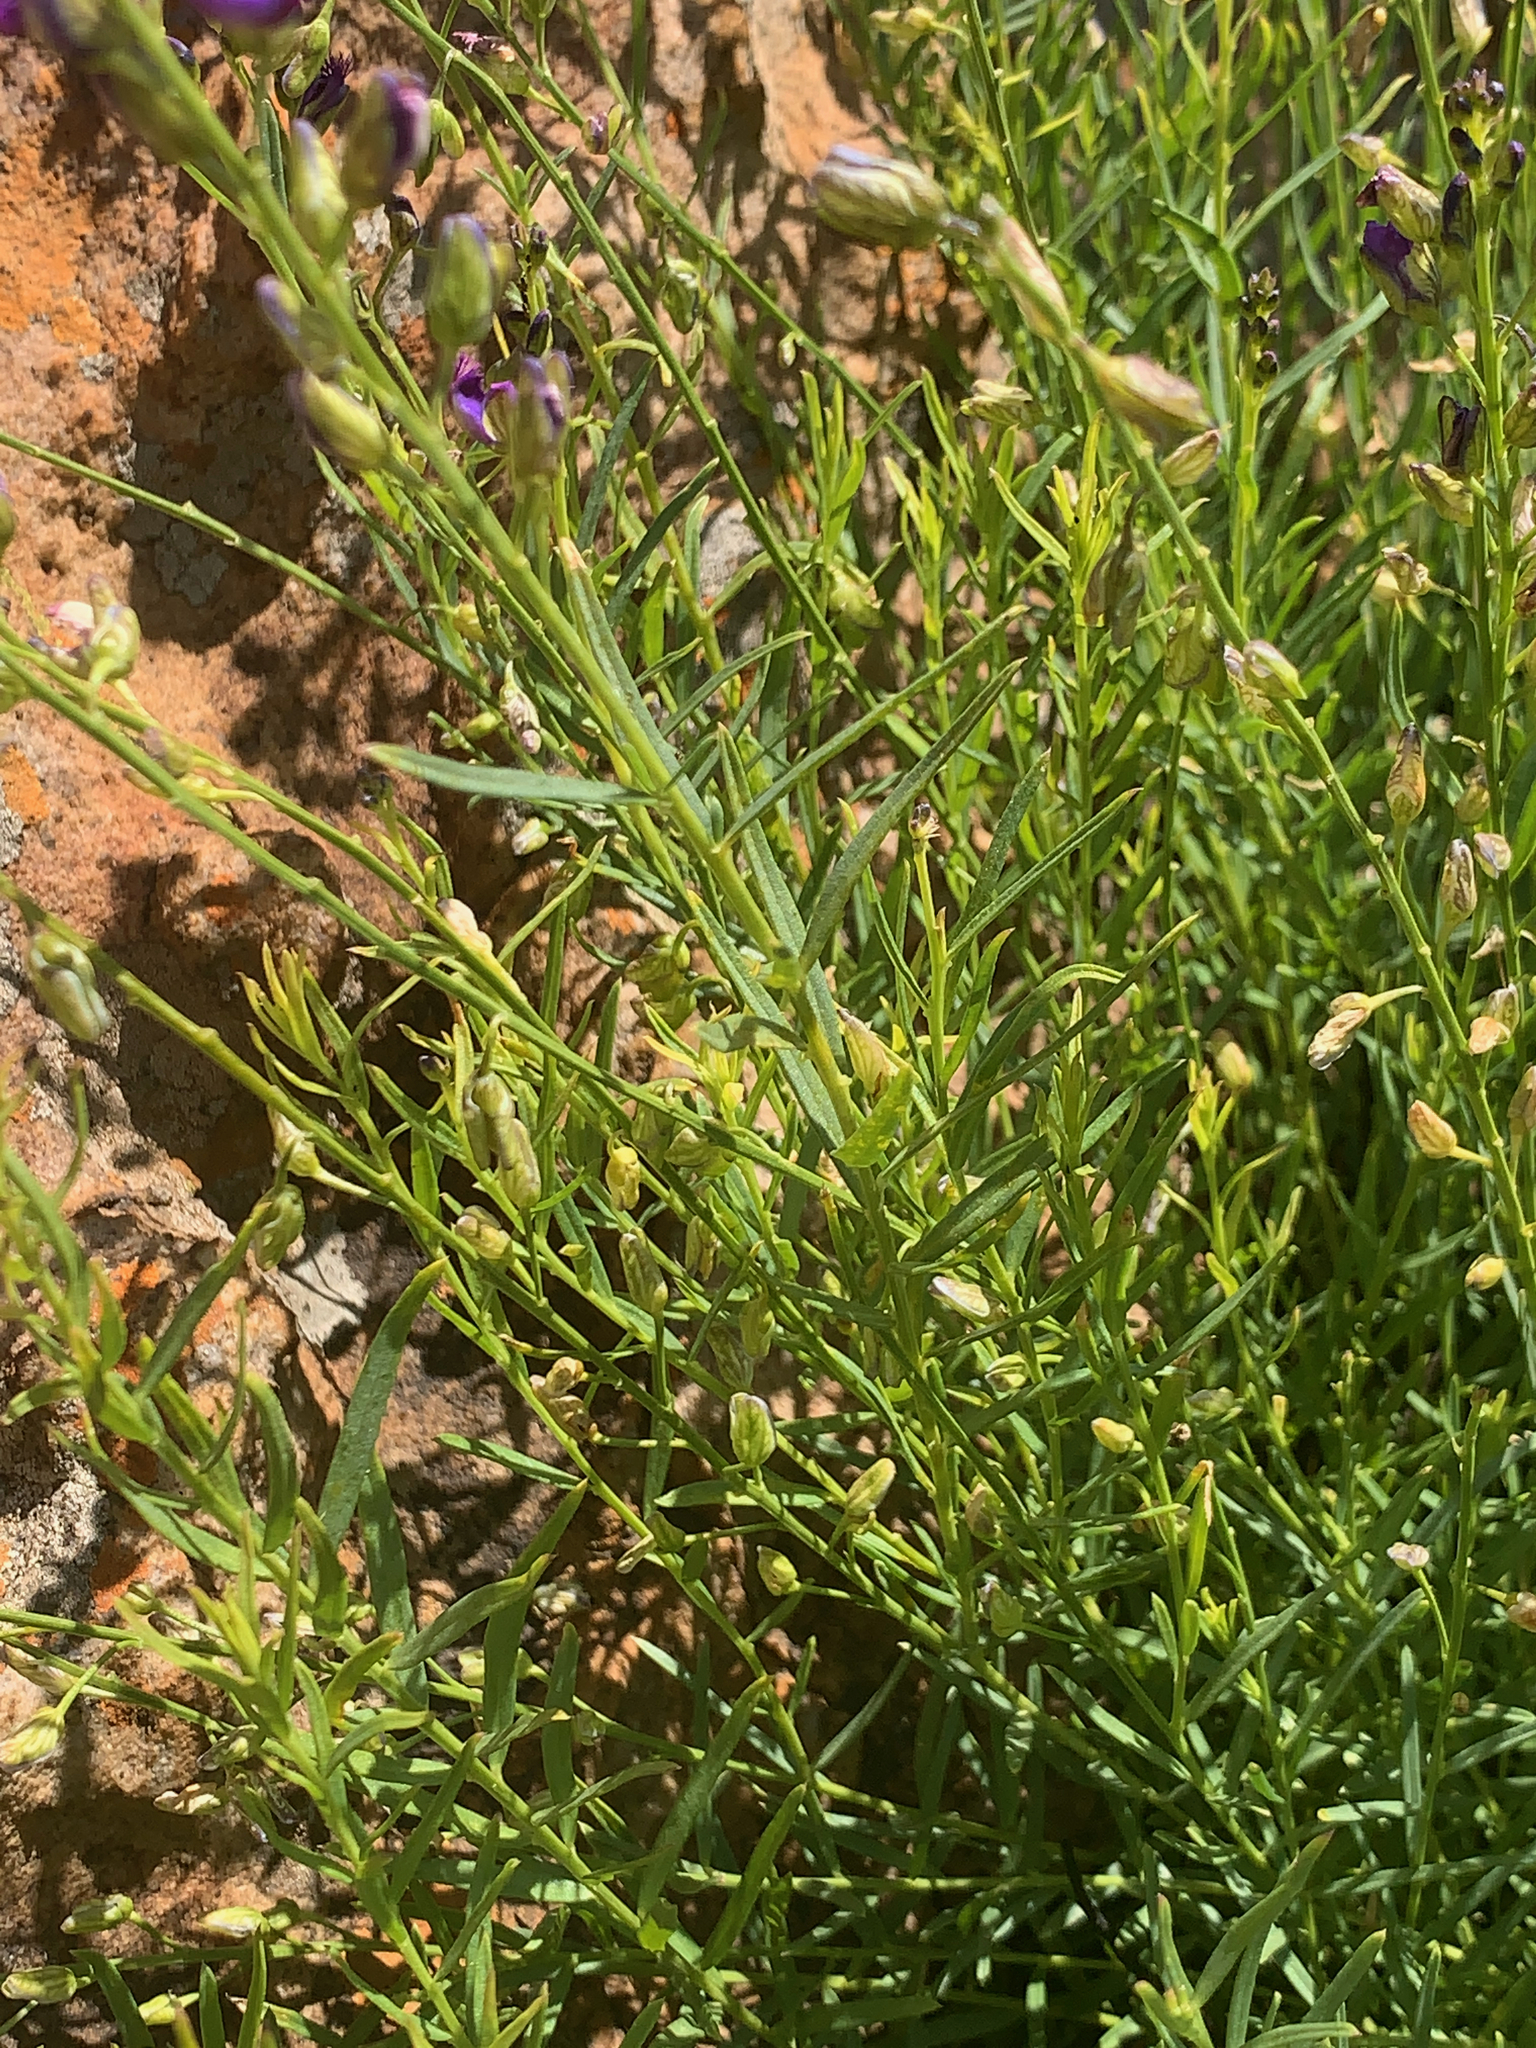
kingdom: Plantae
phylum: Tracheophyta
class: Magnoliopsida
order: Fabales
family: Polygalaceae
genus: Polygala
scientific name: Polygala uncinata
